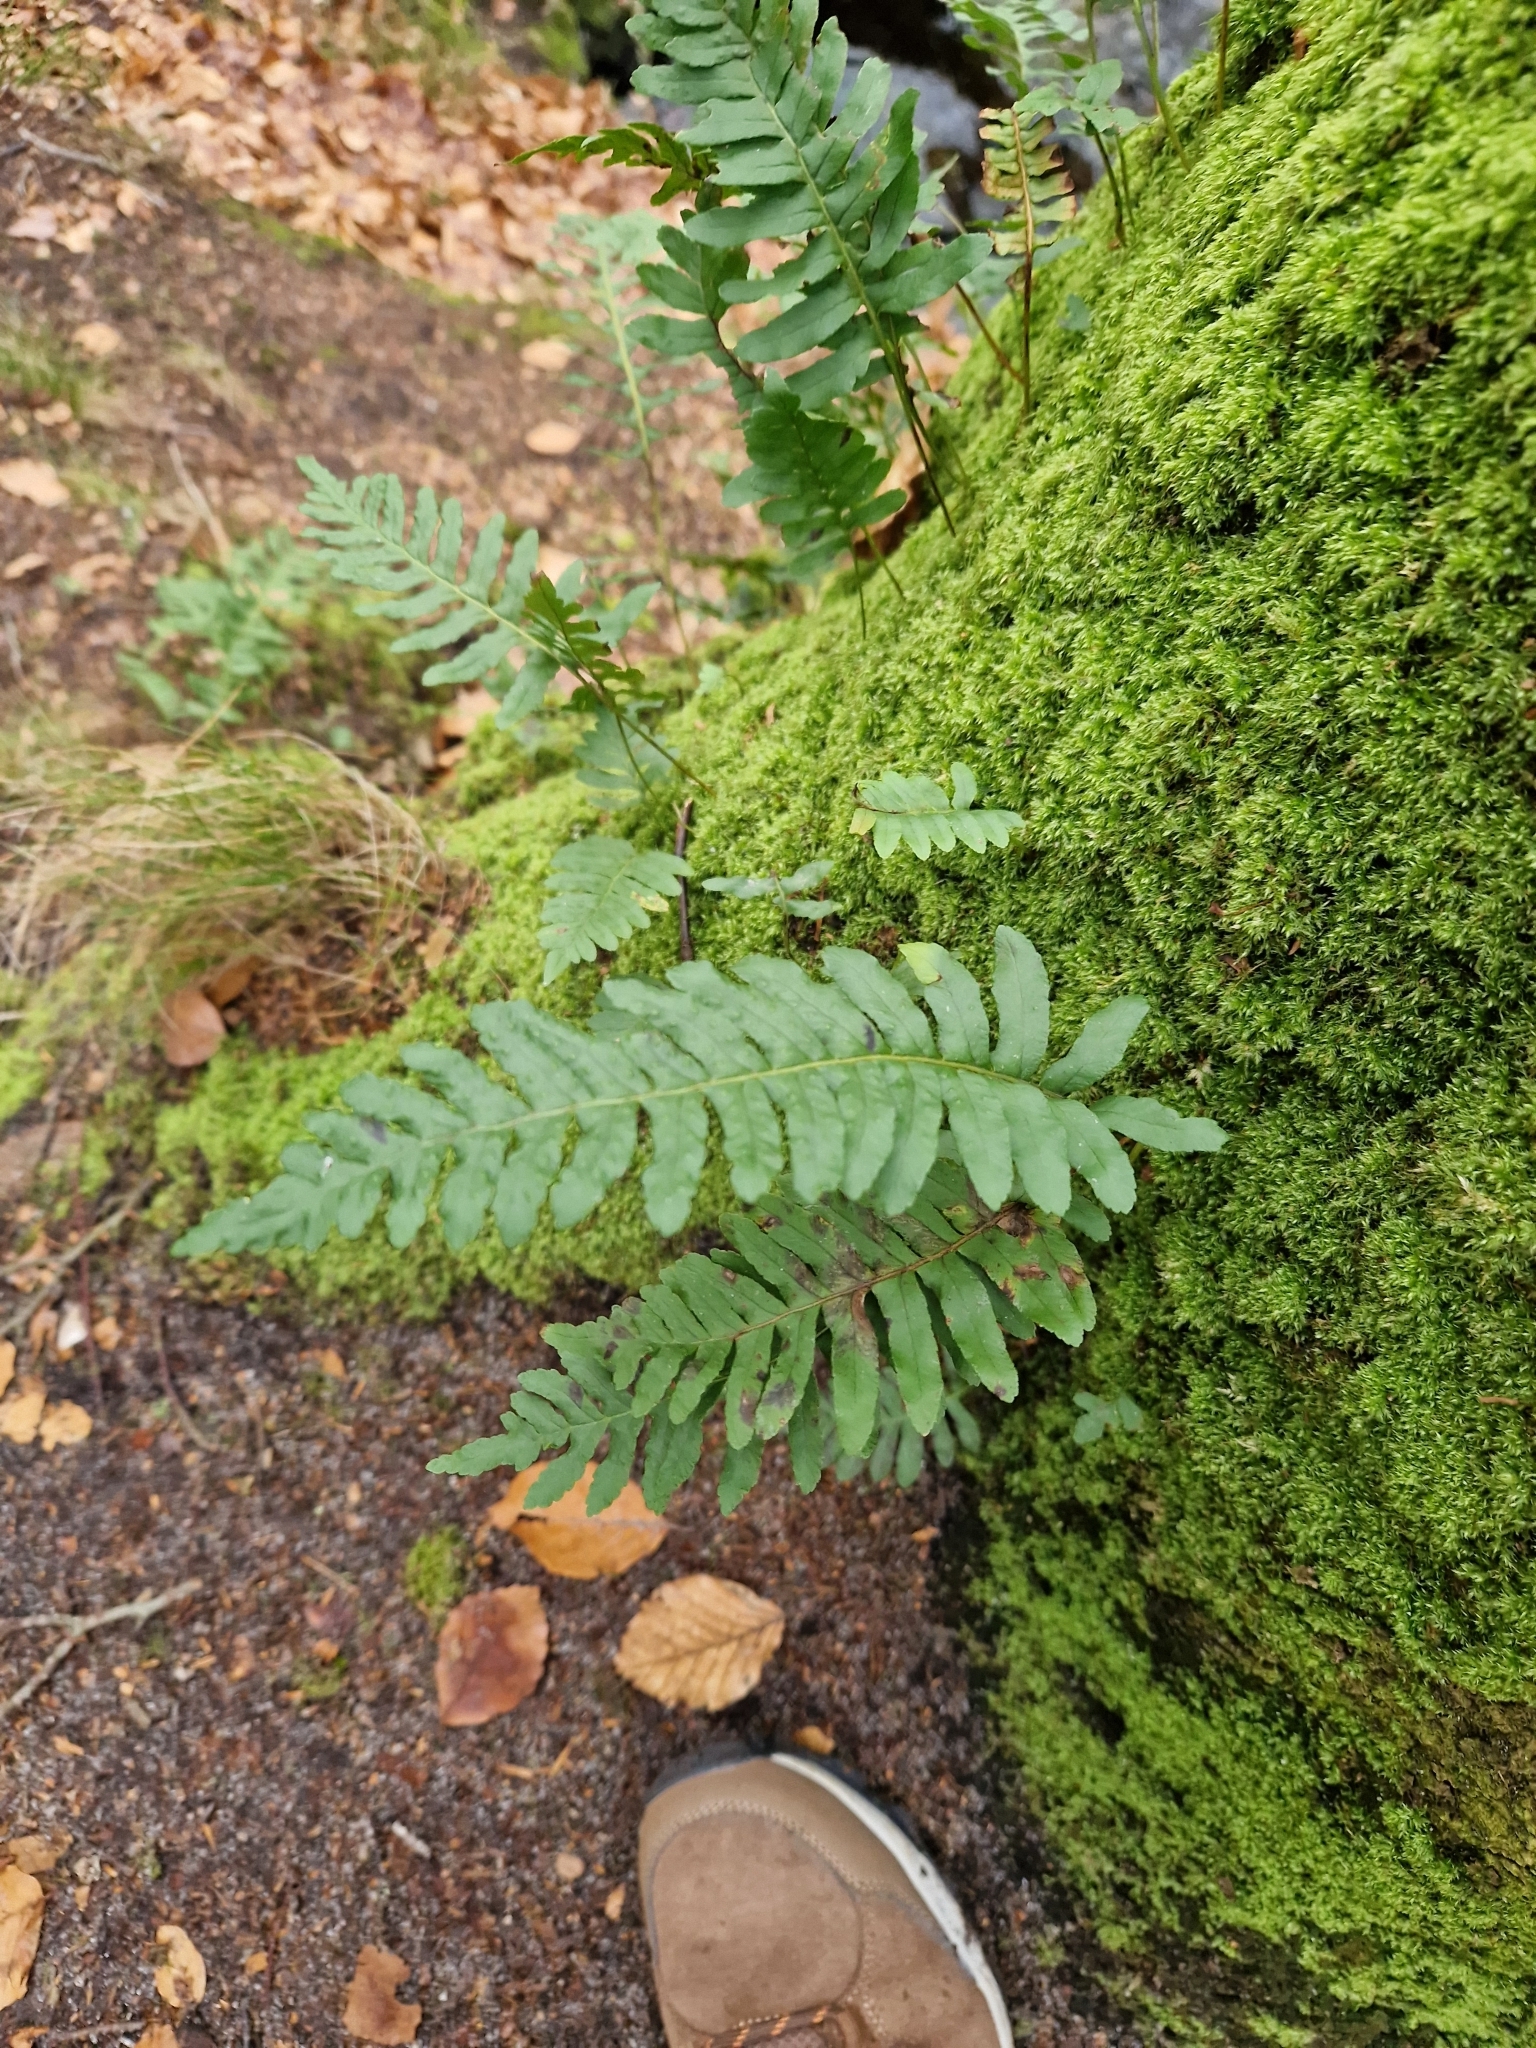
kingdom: Plantae
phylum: Tracheophyta
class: Polypodiopsida
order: Polypodiales
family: Polypodiaceae
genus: Polypodium
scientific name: Polypodium vulgare
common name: Common polypody
